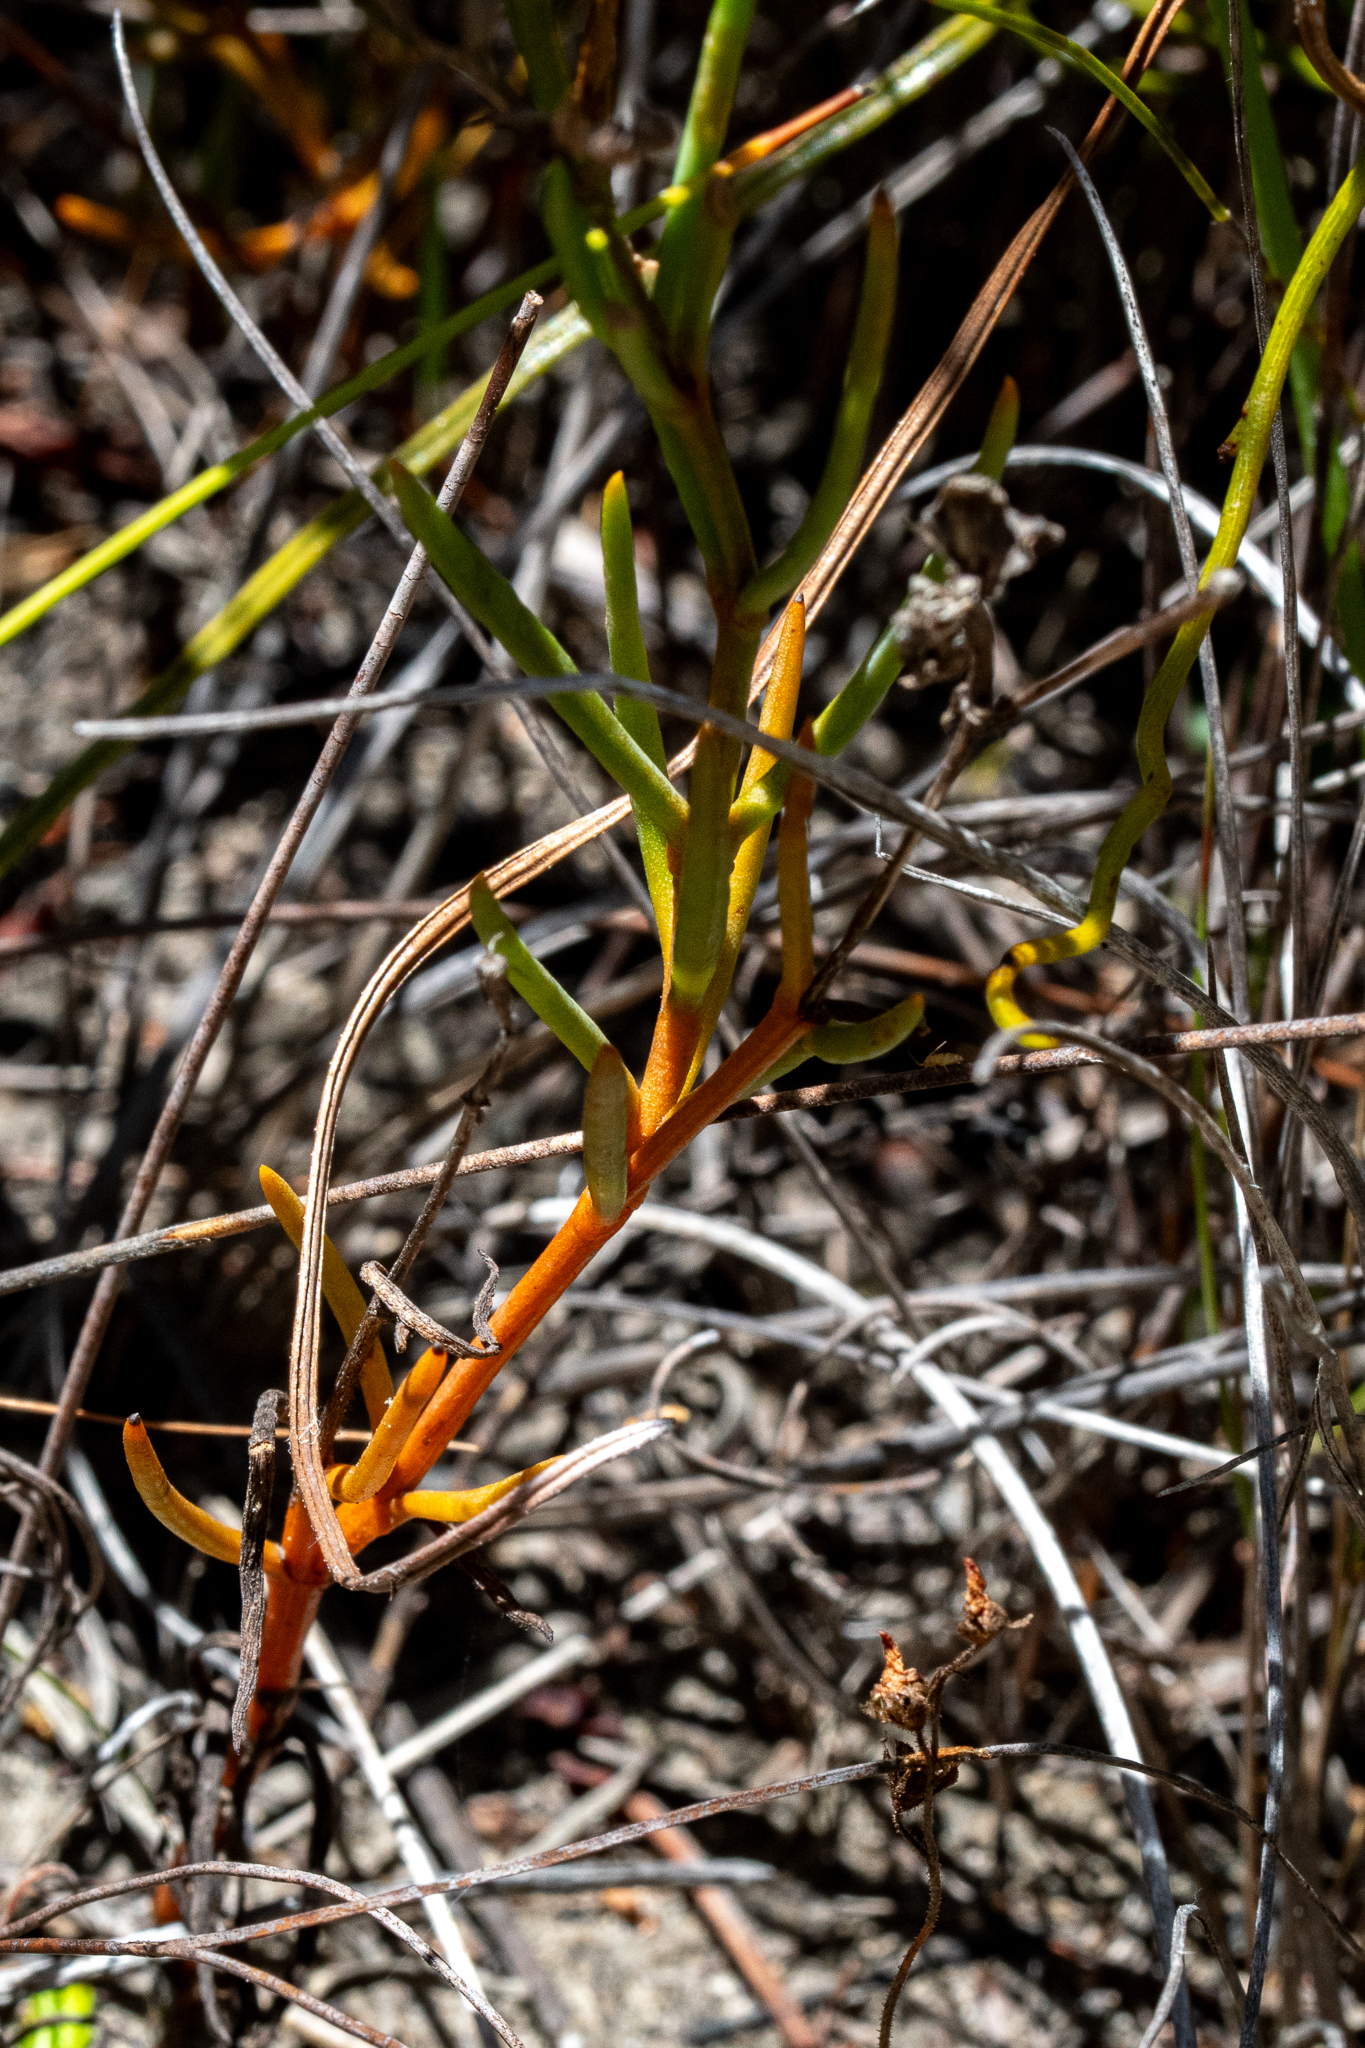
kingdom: Plantae
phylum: Tracheophyta
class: Magnoliopsida
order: Gentianales
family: Gentianaceae
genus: Chironia
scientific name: Chironia linoides
